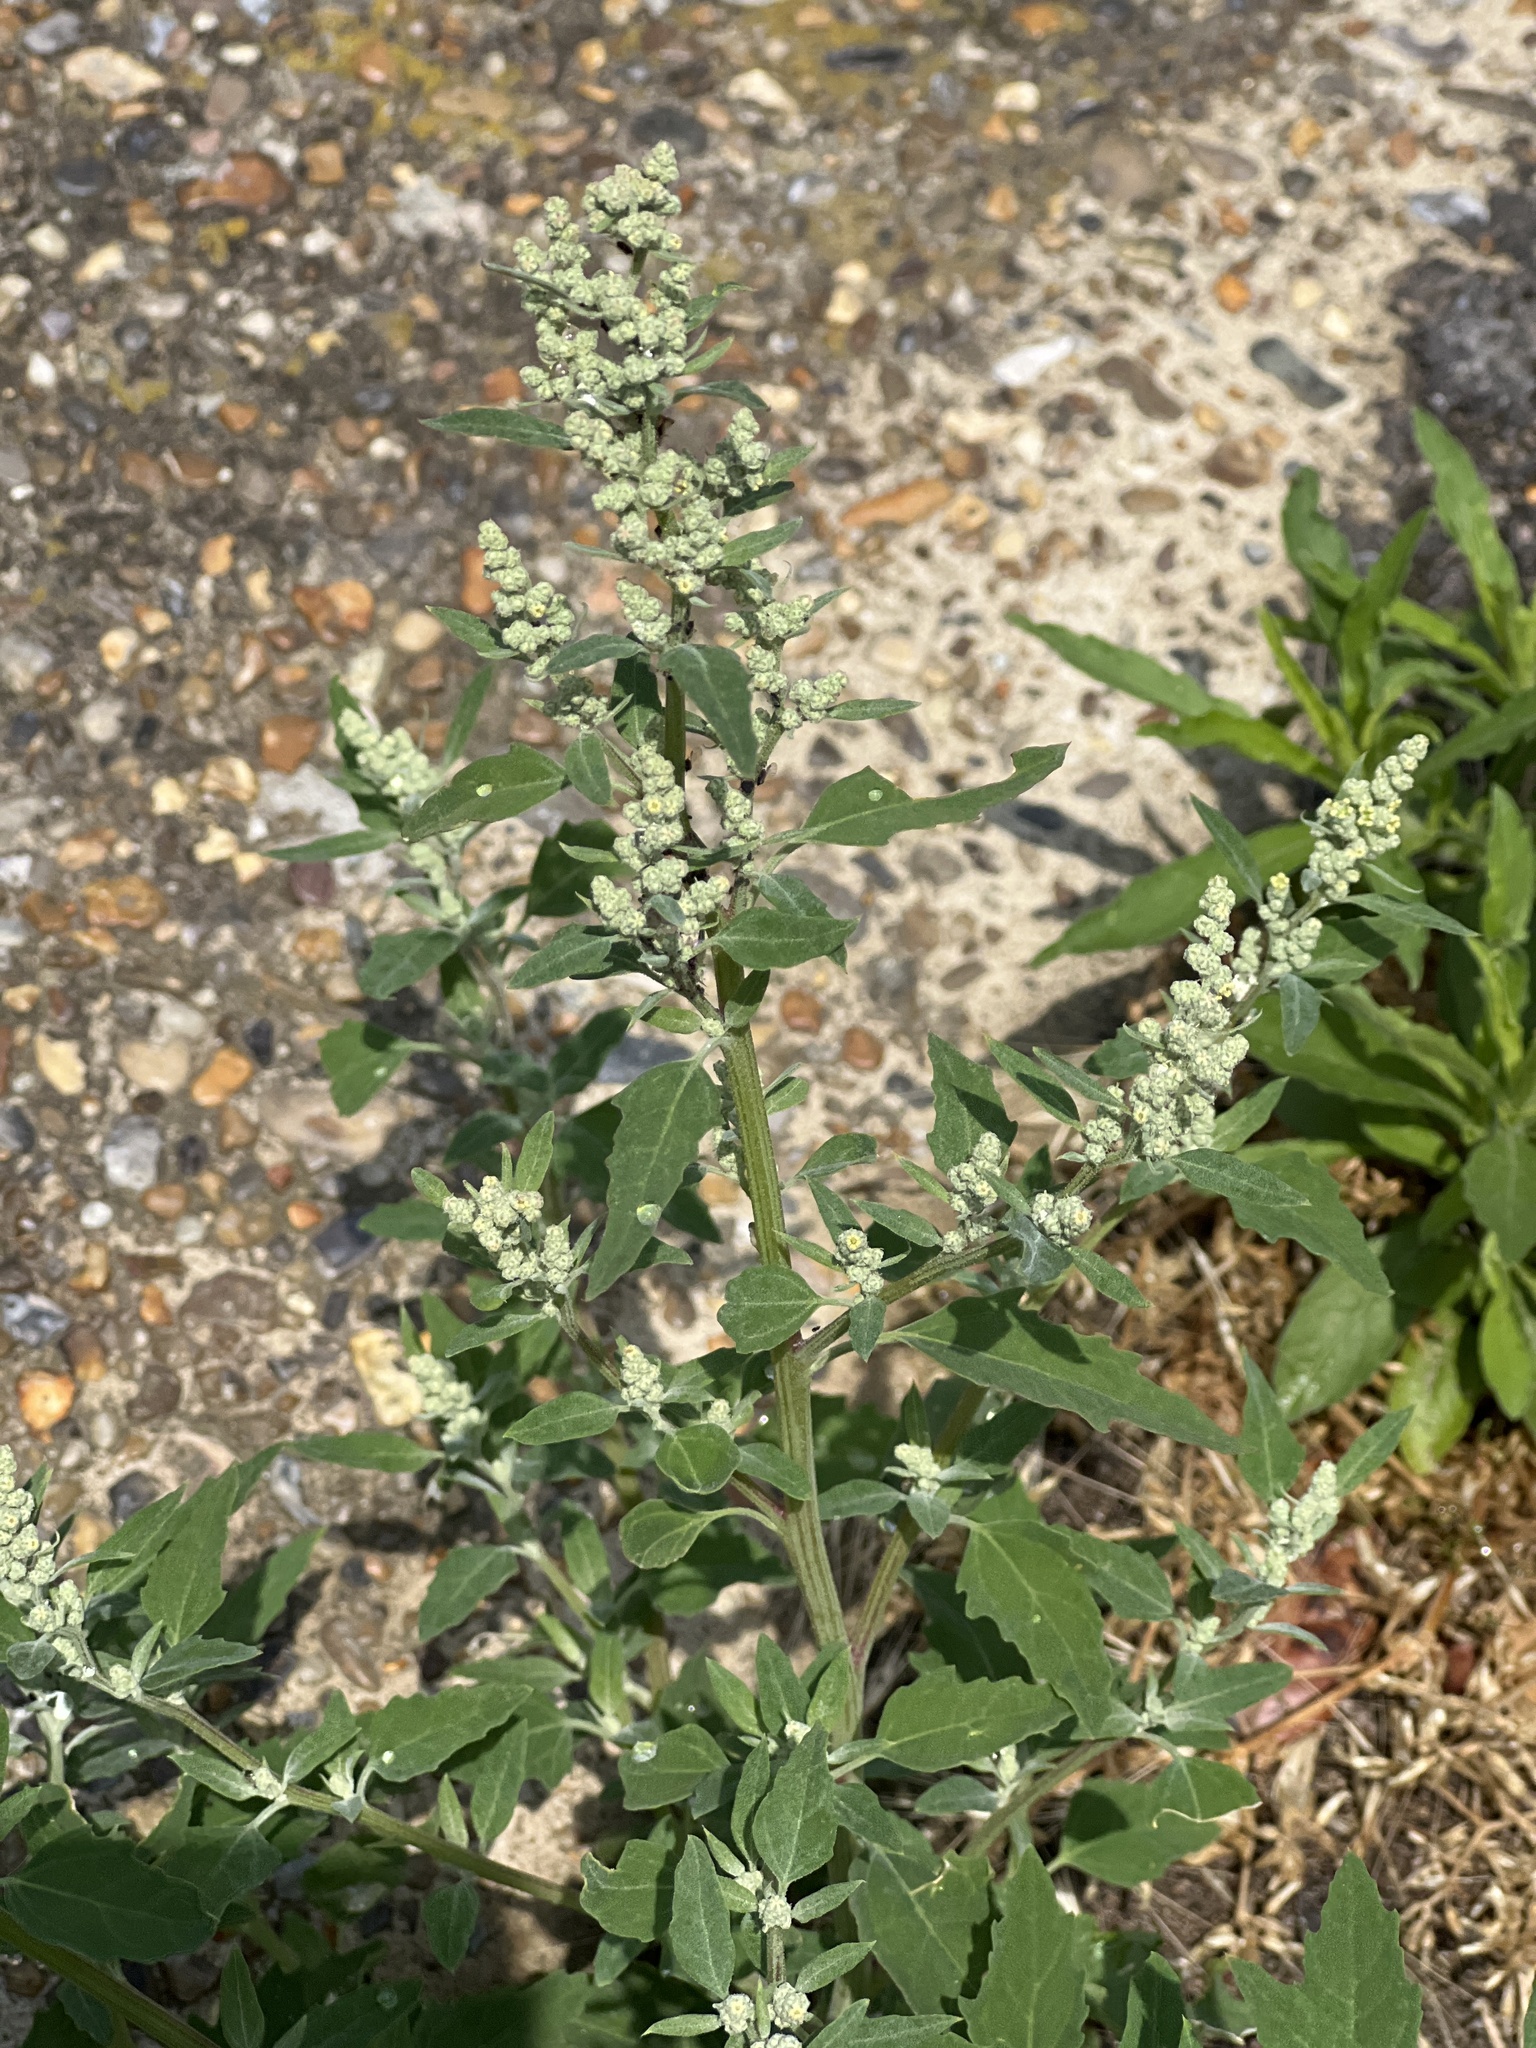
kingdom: Plantae
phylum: Tracheophyta
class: Magnoliopsida
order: Caryophyllales
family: Amaranthaceae
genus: Chenopodium
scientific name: Chenopodium album
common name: Fat-hen
